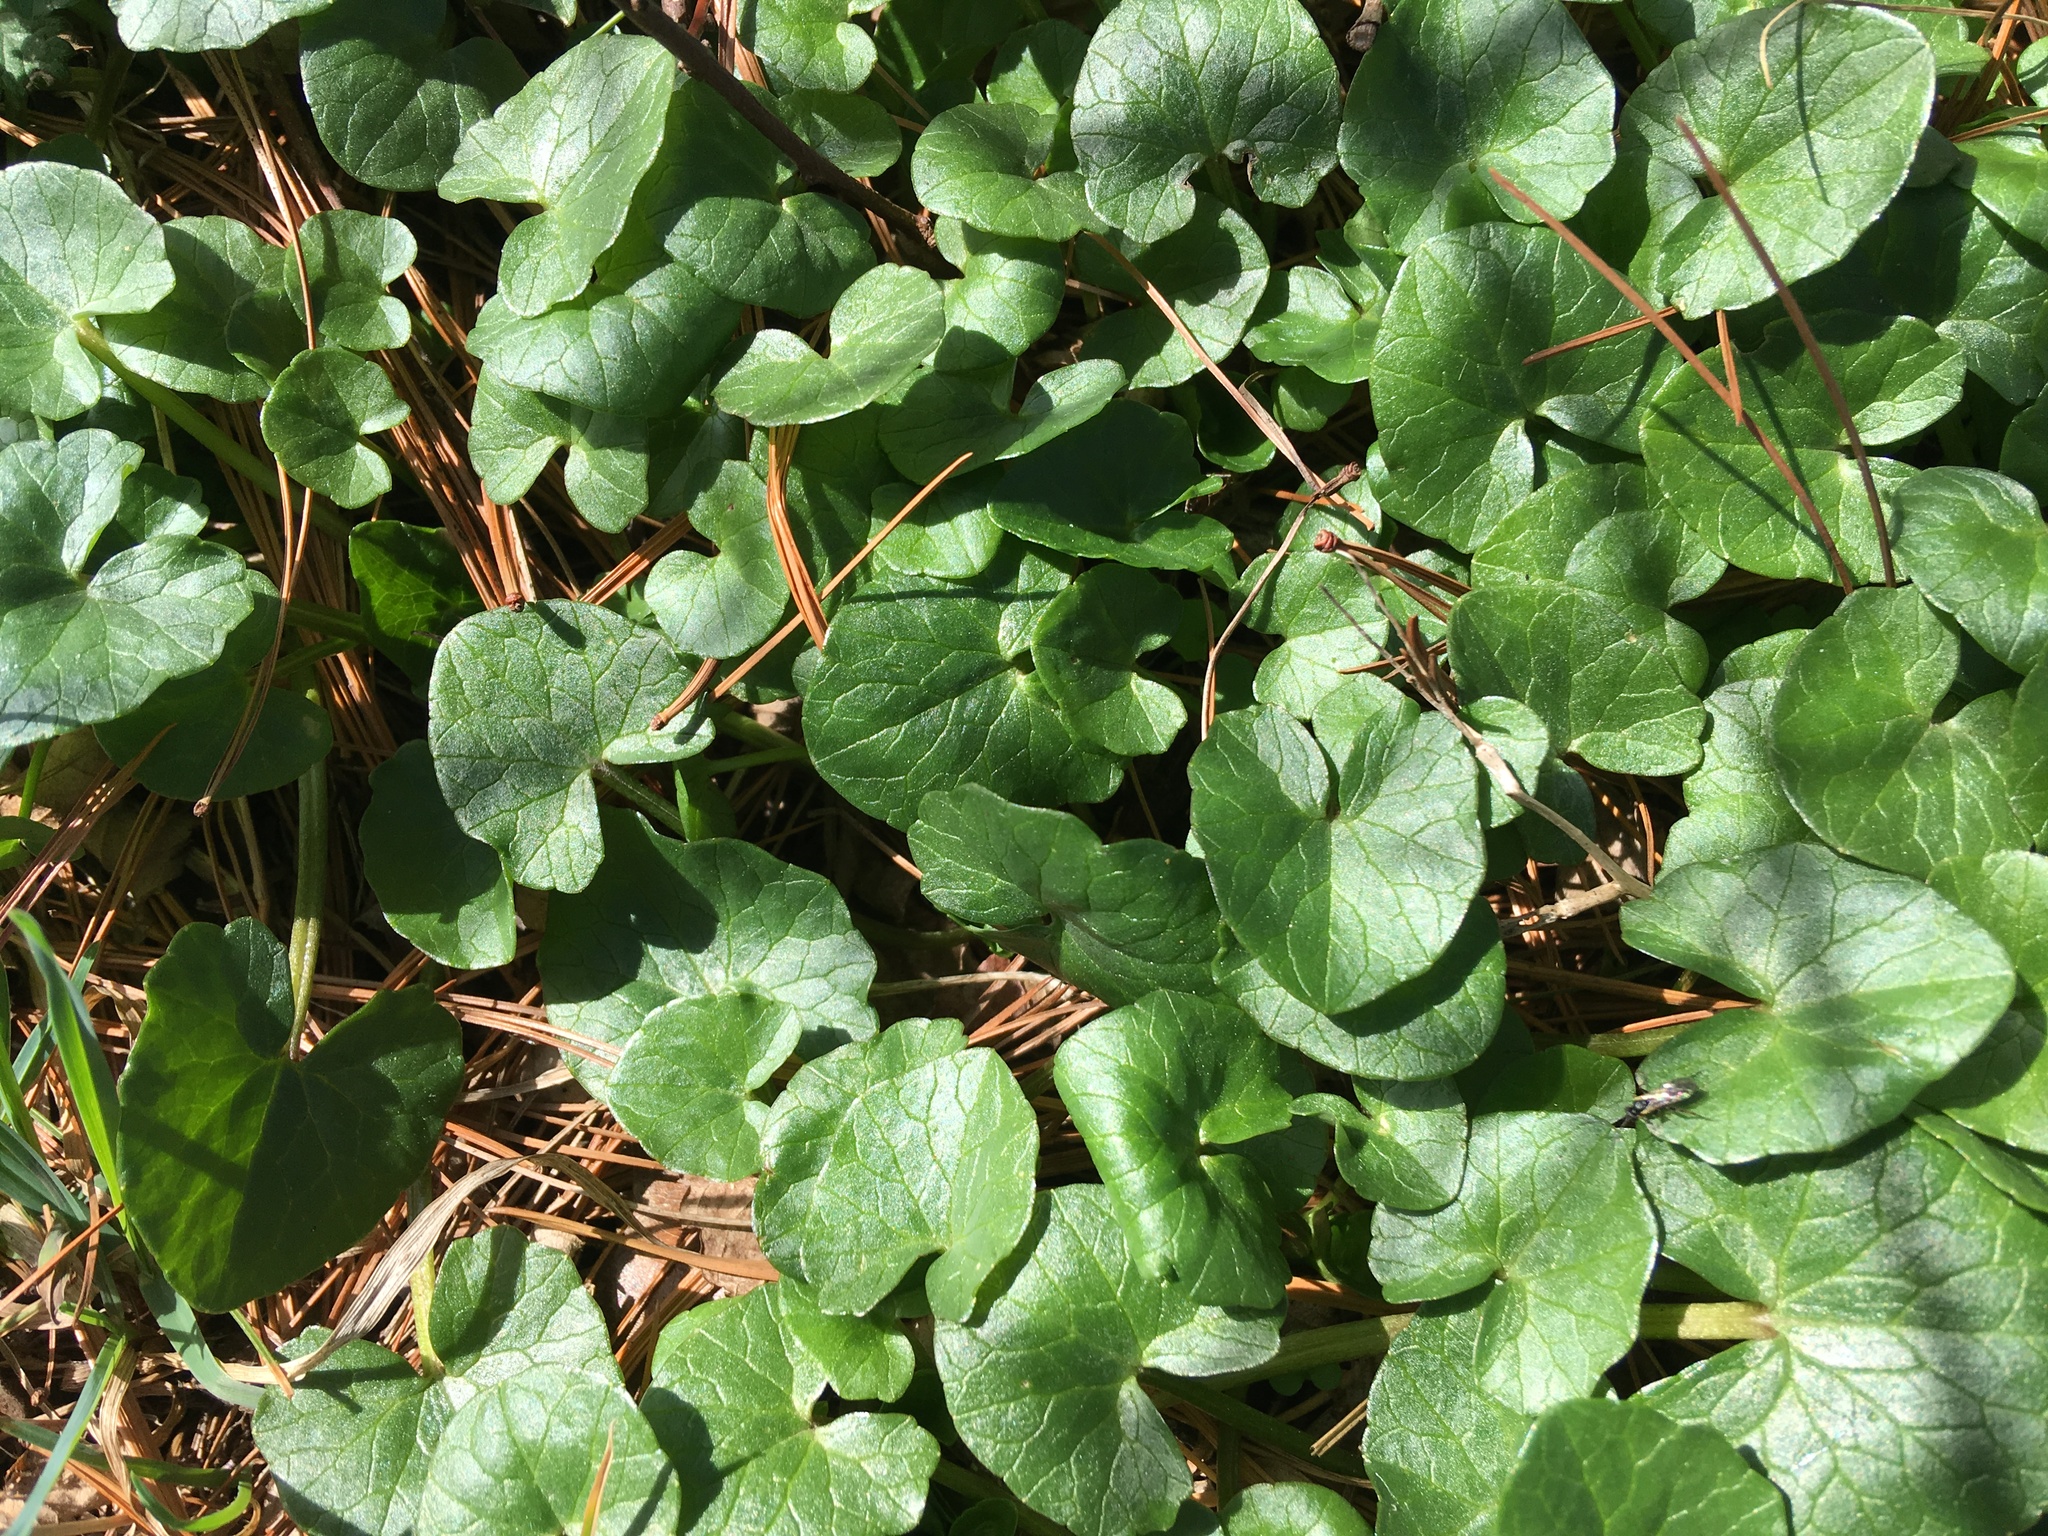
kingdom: Plantae
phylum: Tracheophyta
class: Magnoliopsida
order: Ranunculales
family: Ranunculaceae
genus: Ficaria
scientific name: Ficaria verna
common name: Lesser celandine
